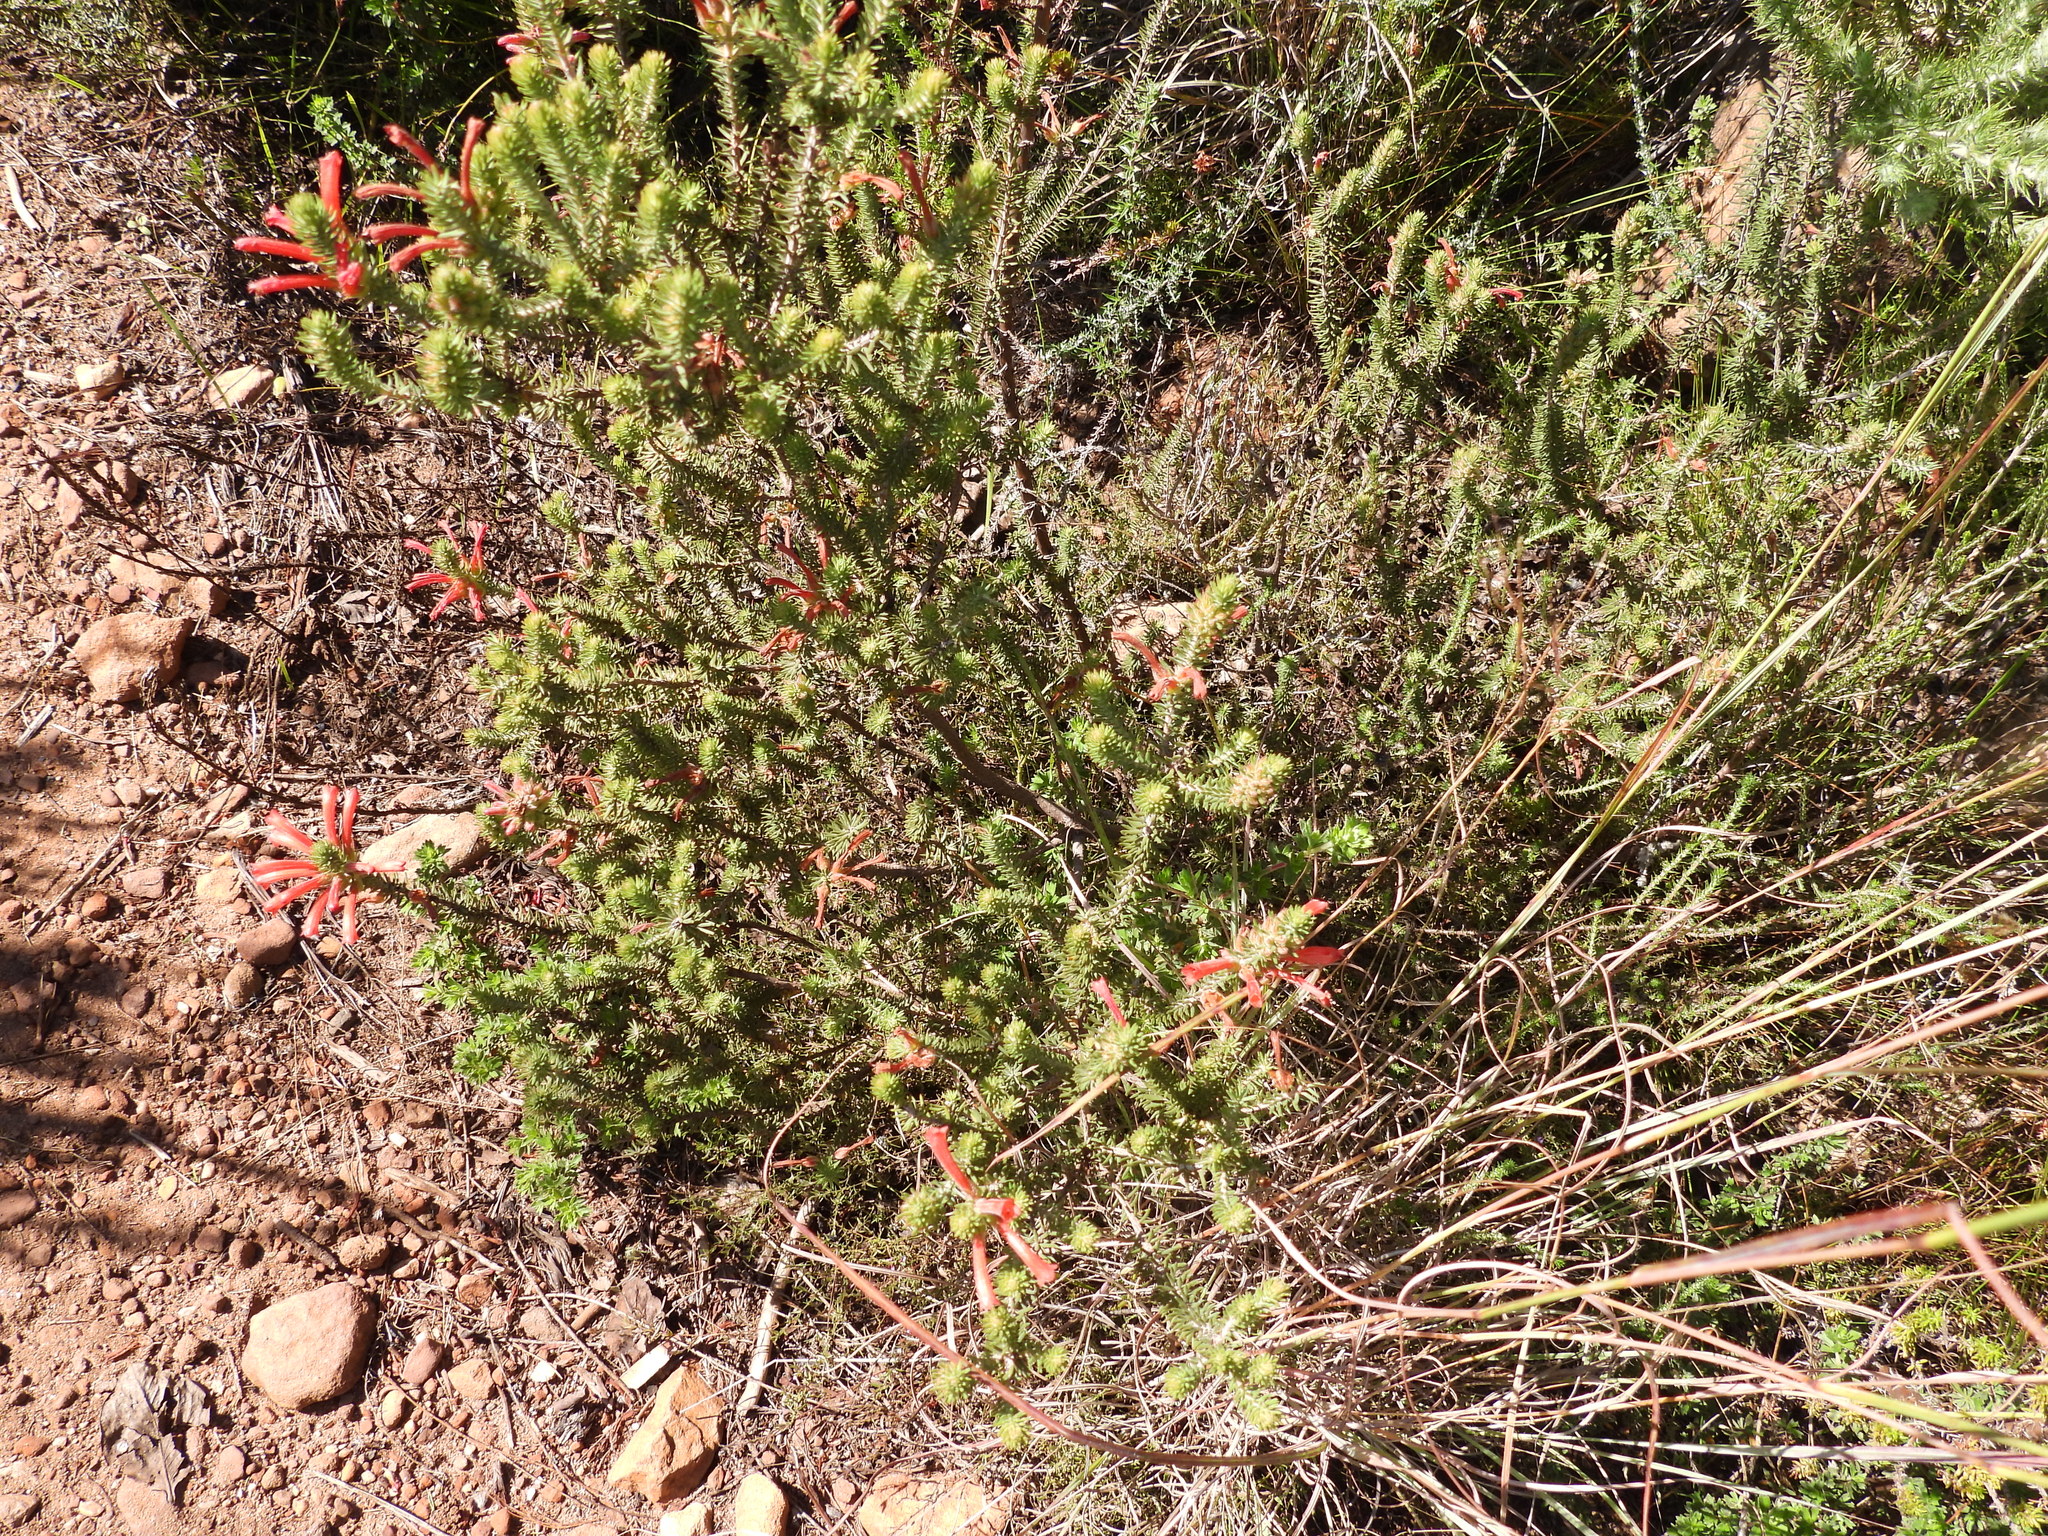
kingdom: Plantae
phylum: Tracheophyta
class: Magnoliopsida
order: Ericales
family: Ericaceae
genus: Erica
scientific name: Erica abietina
